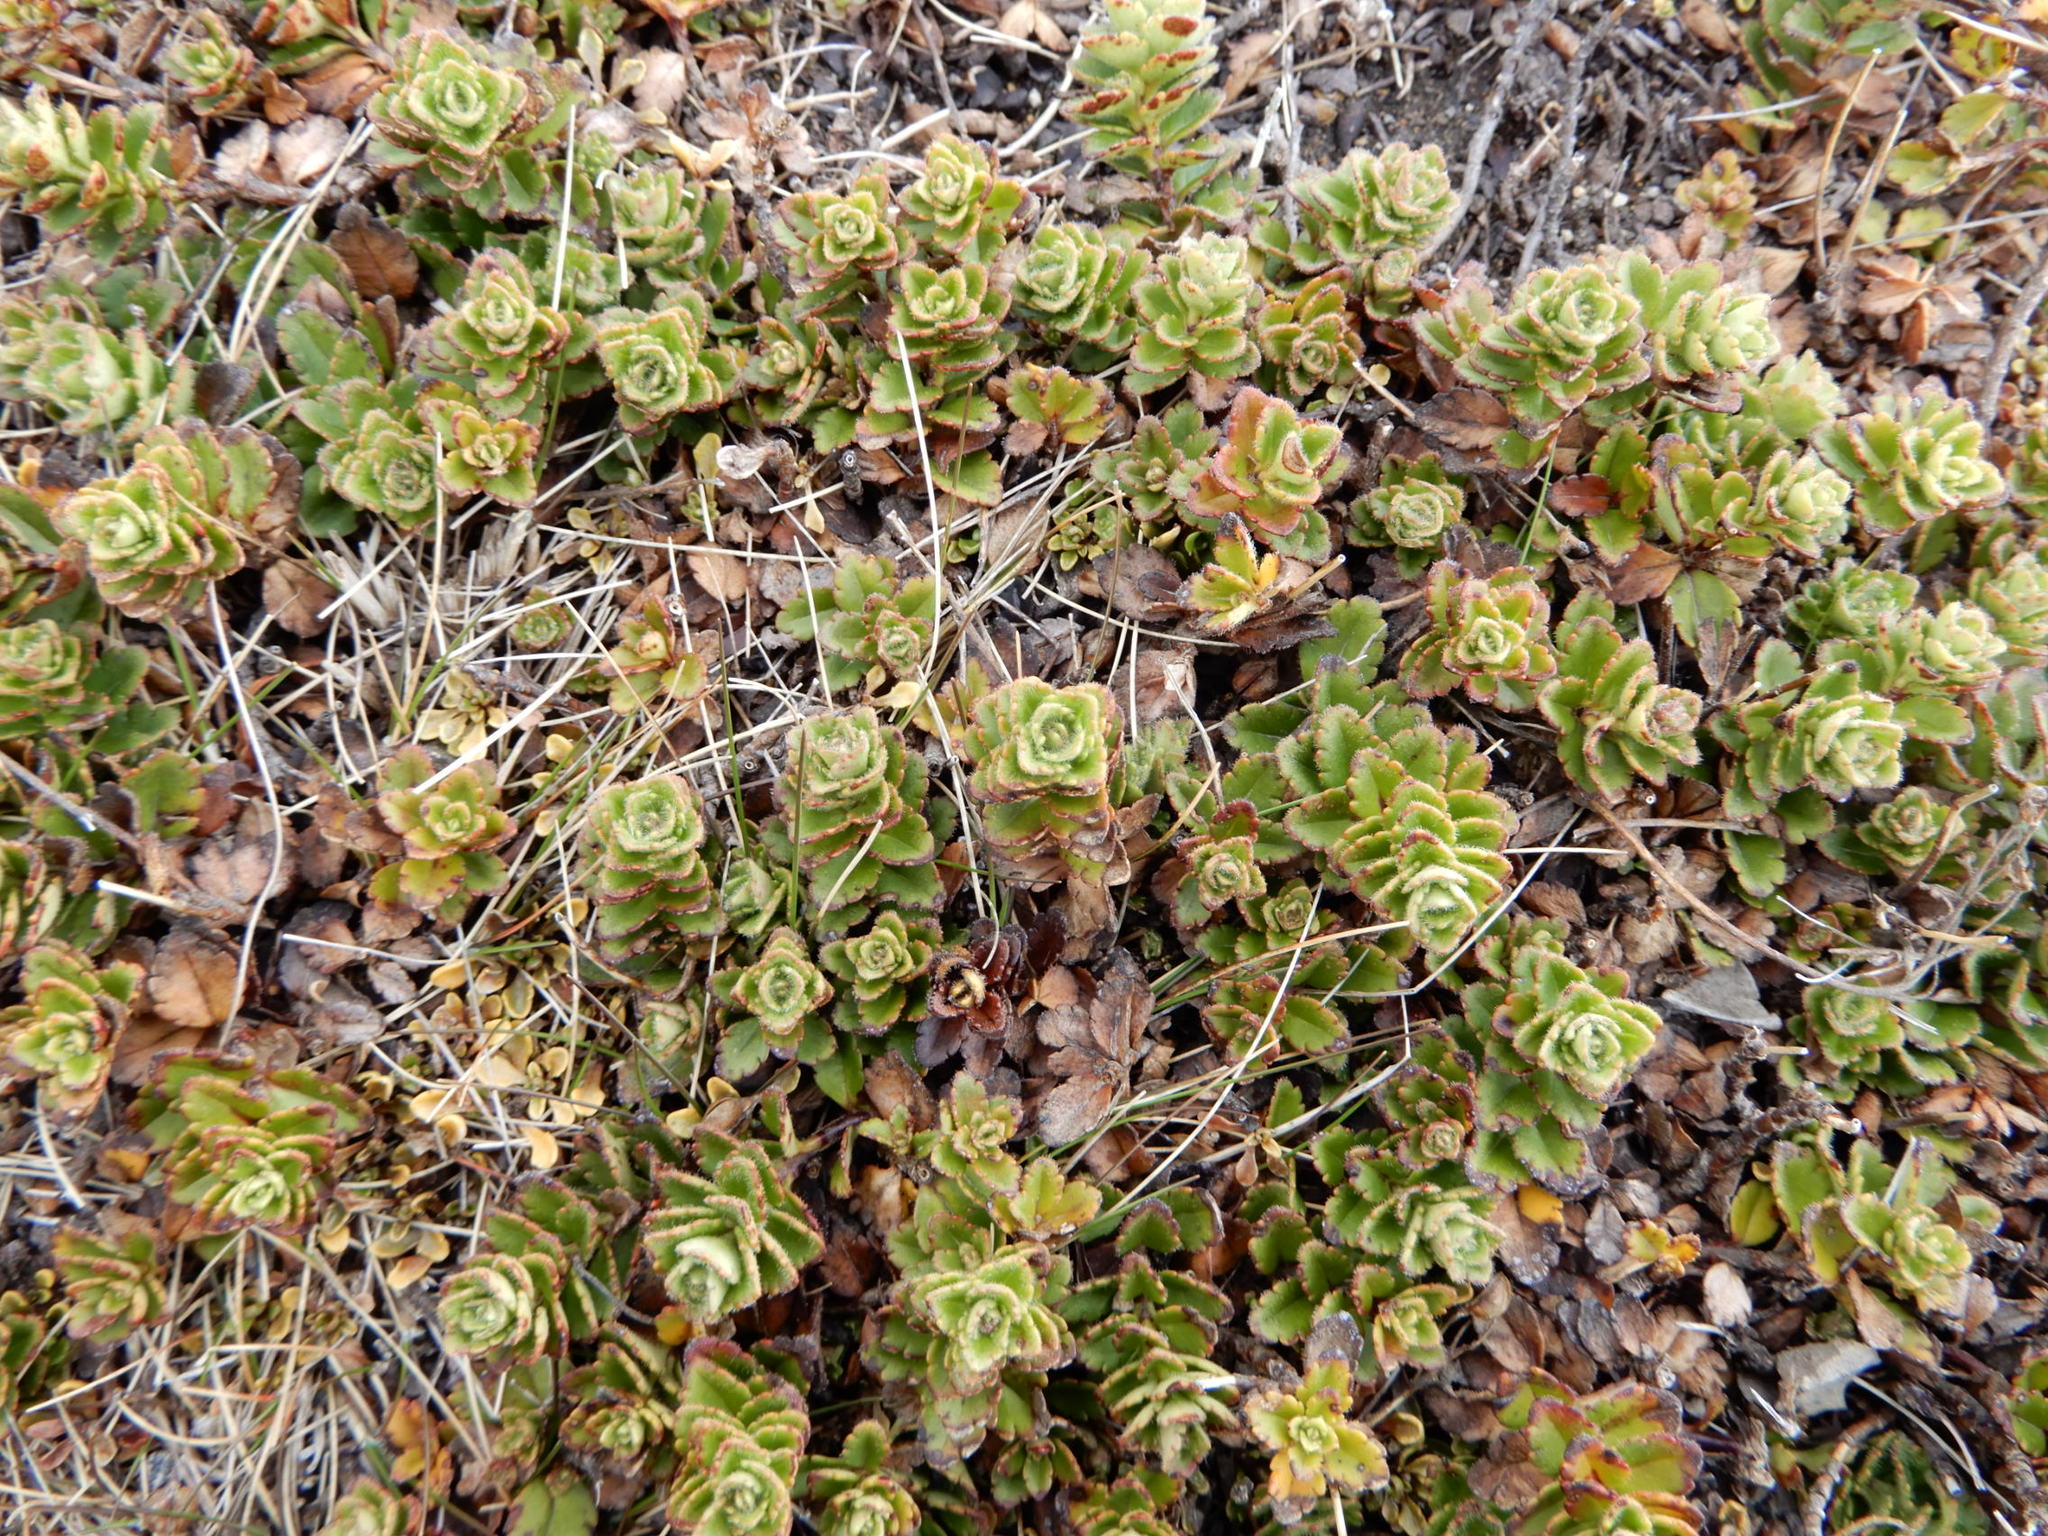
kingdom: Plantae
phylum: Tracheophyta
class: Magnoliopsida
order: Lamiales
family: Plantaginaceae
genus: Veronica
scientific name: Veronica hookeriana
